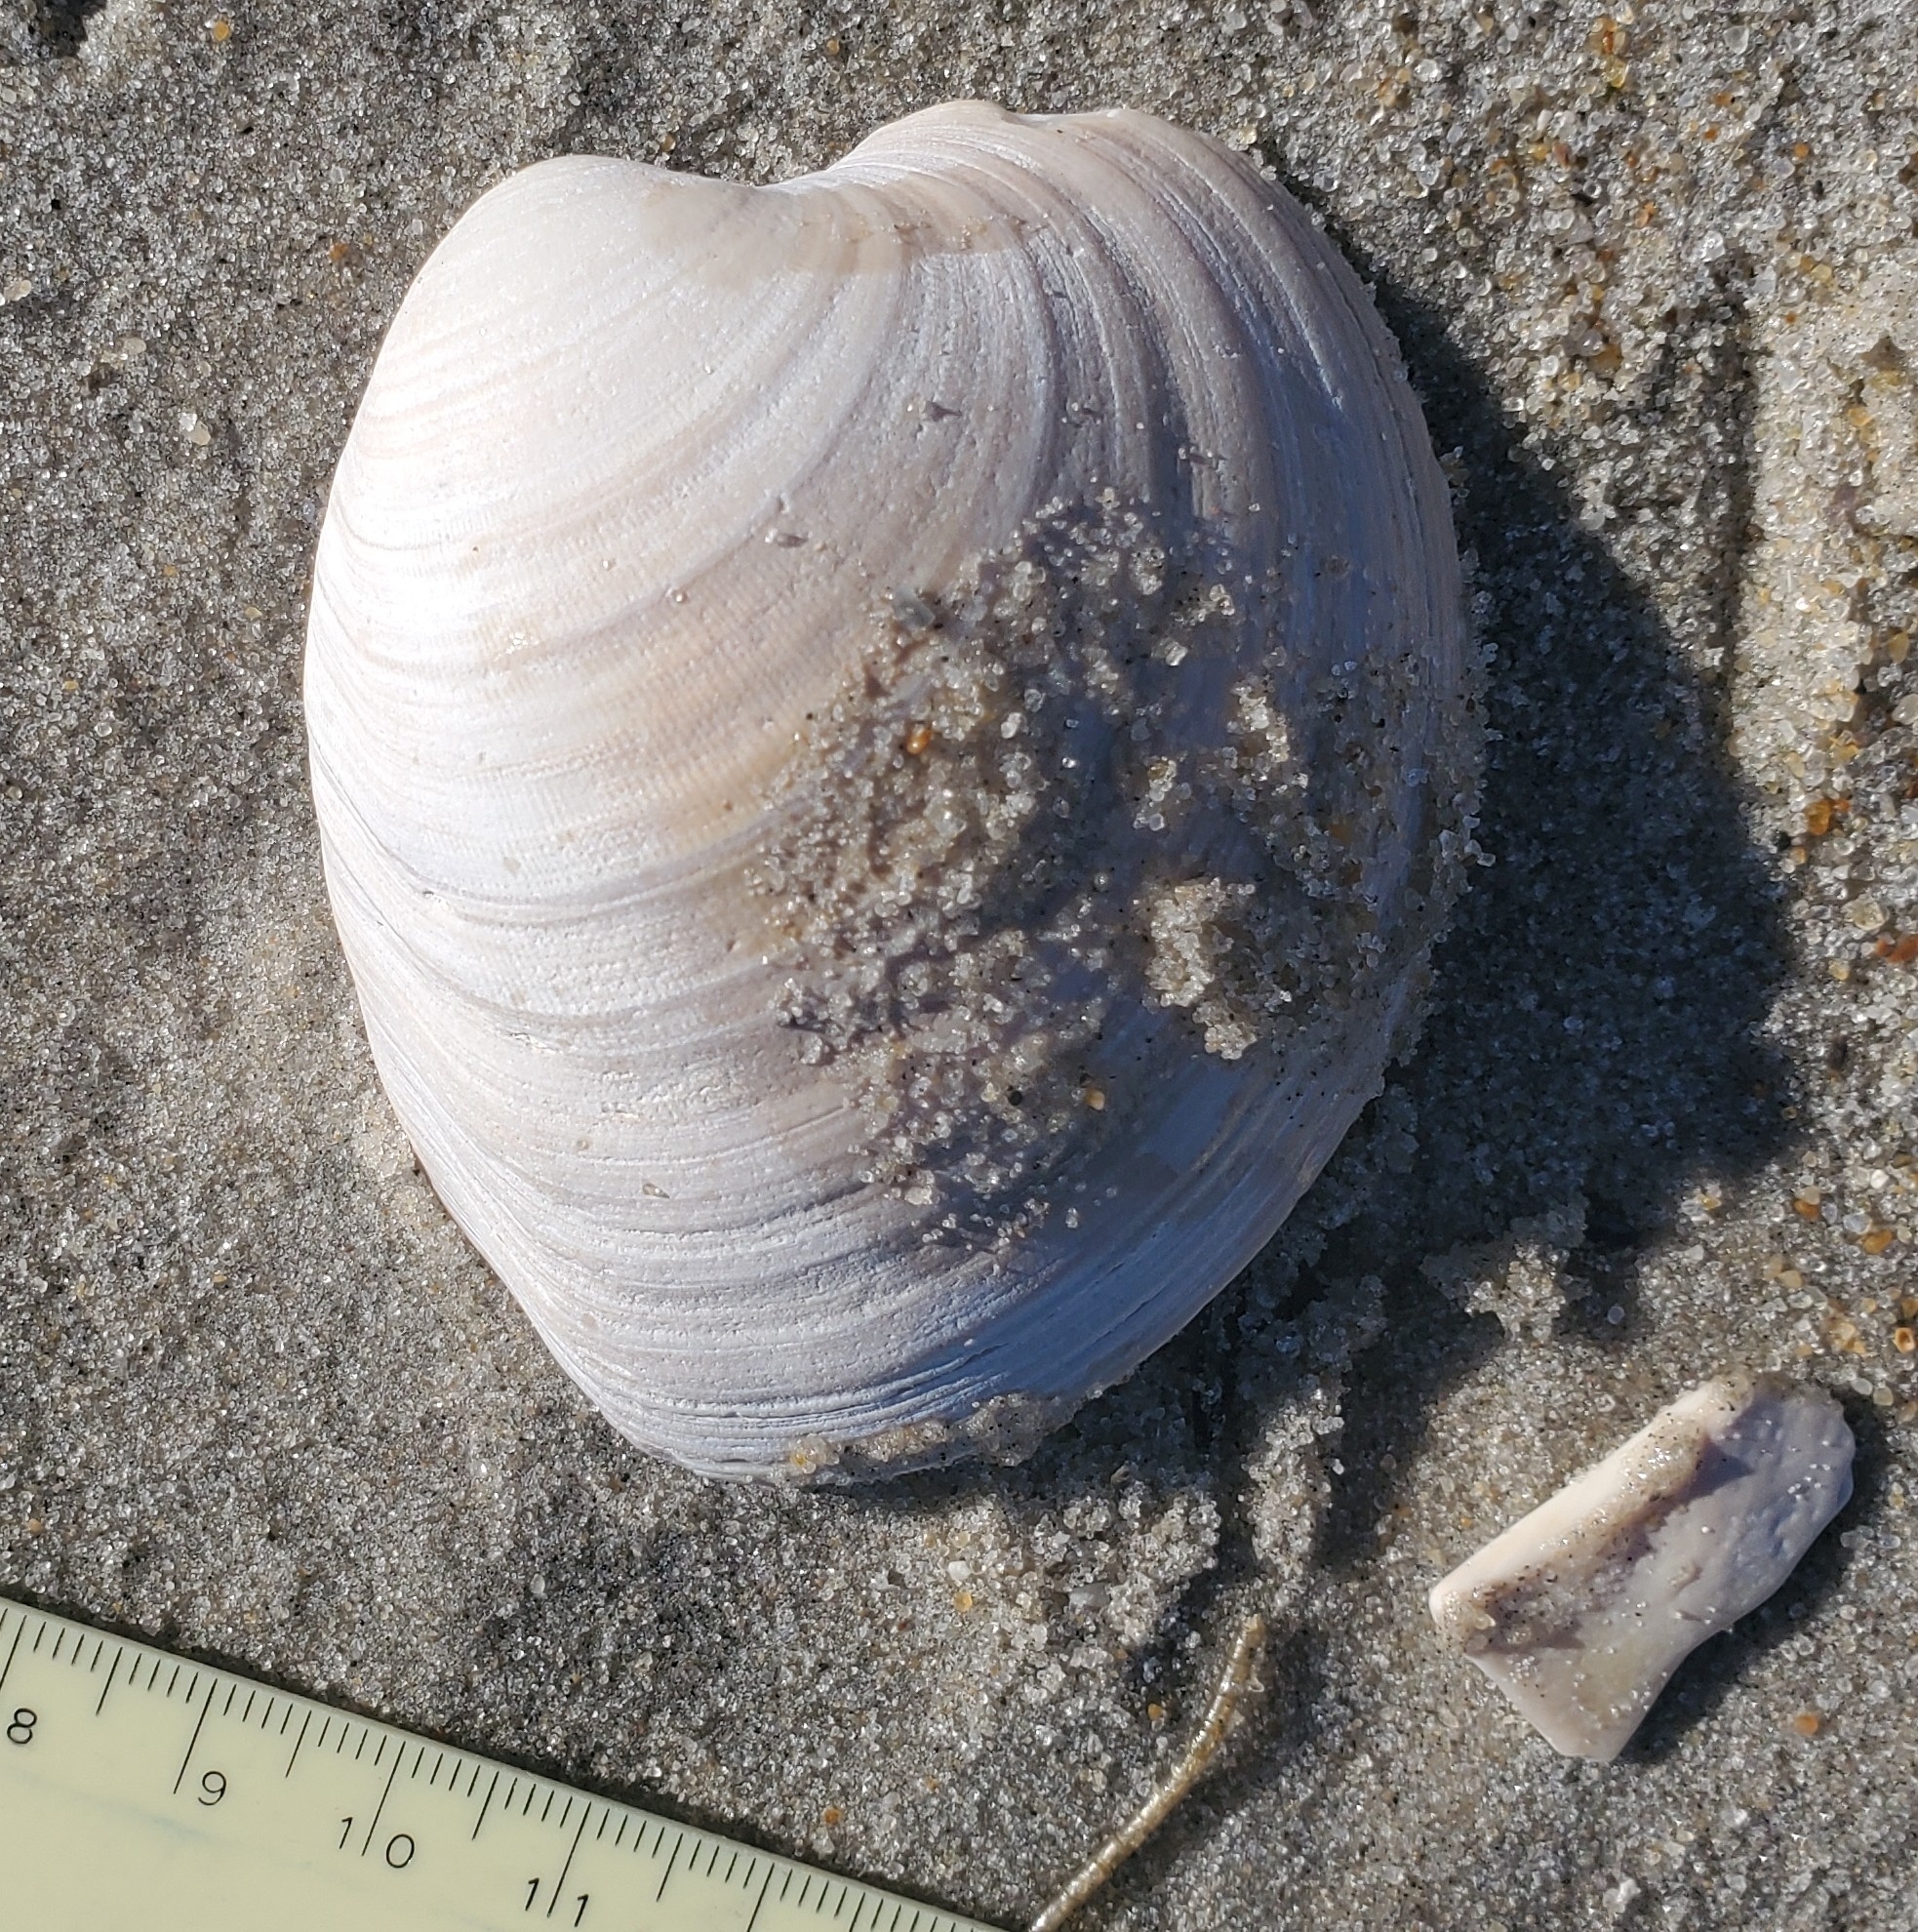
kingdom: Animalia
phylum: Mollusca
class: Bivalvia
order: Venerida
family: Veneridae
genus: Mercenaria
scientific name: Mercenaria mercenaria
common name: American hard-shelled clam
